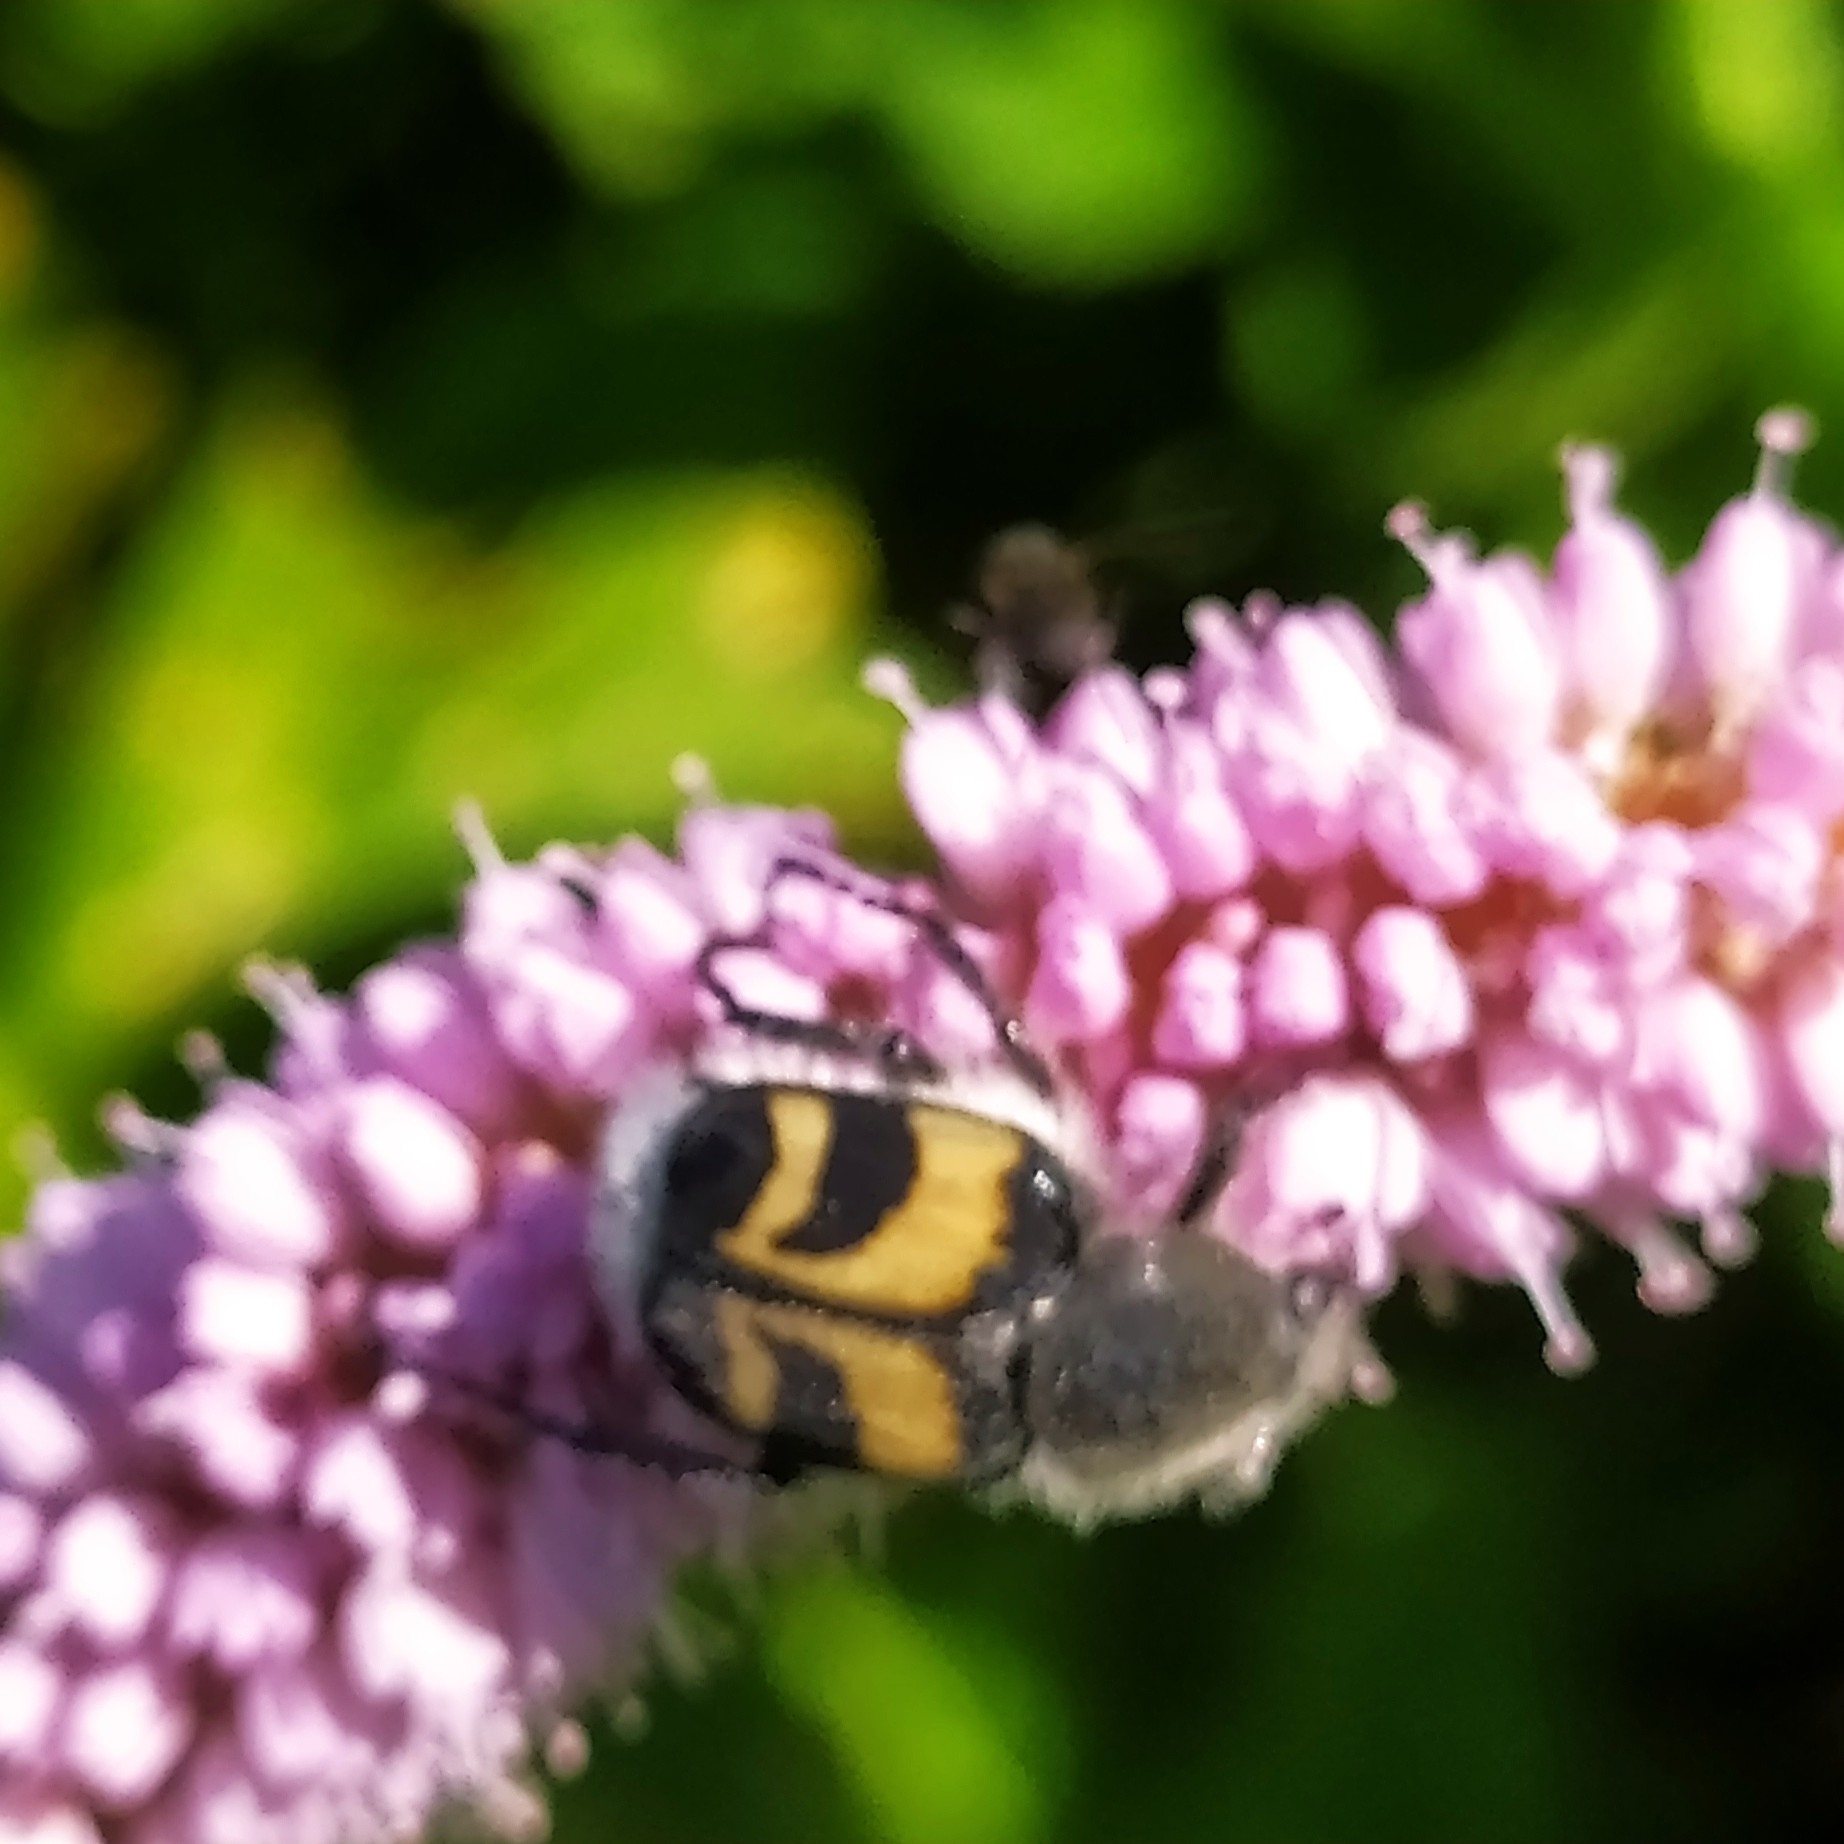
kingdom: Animalia
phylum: Arthropoda
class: Insecta
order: Coleoptera
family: Scarabaeidae
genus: Trichius
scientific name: Trichius fasciatus
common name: Bee beetle
